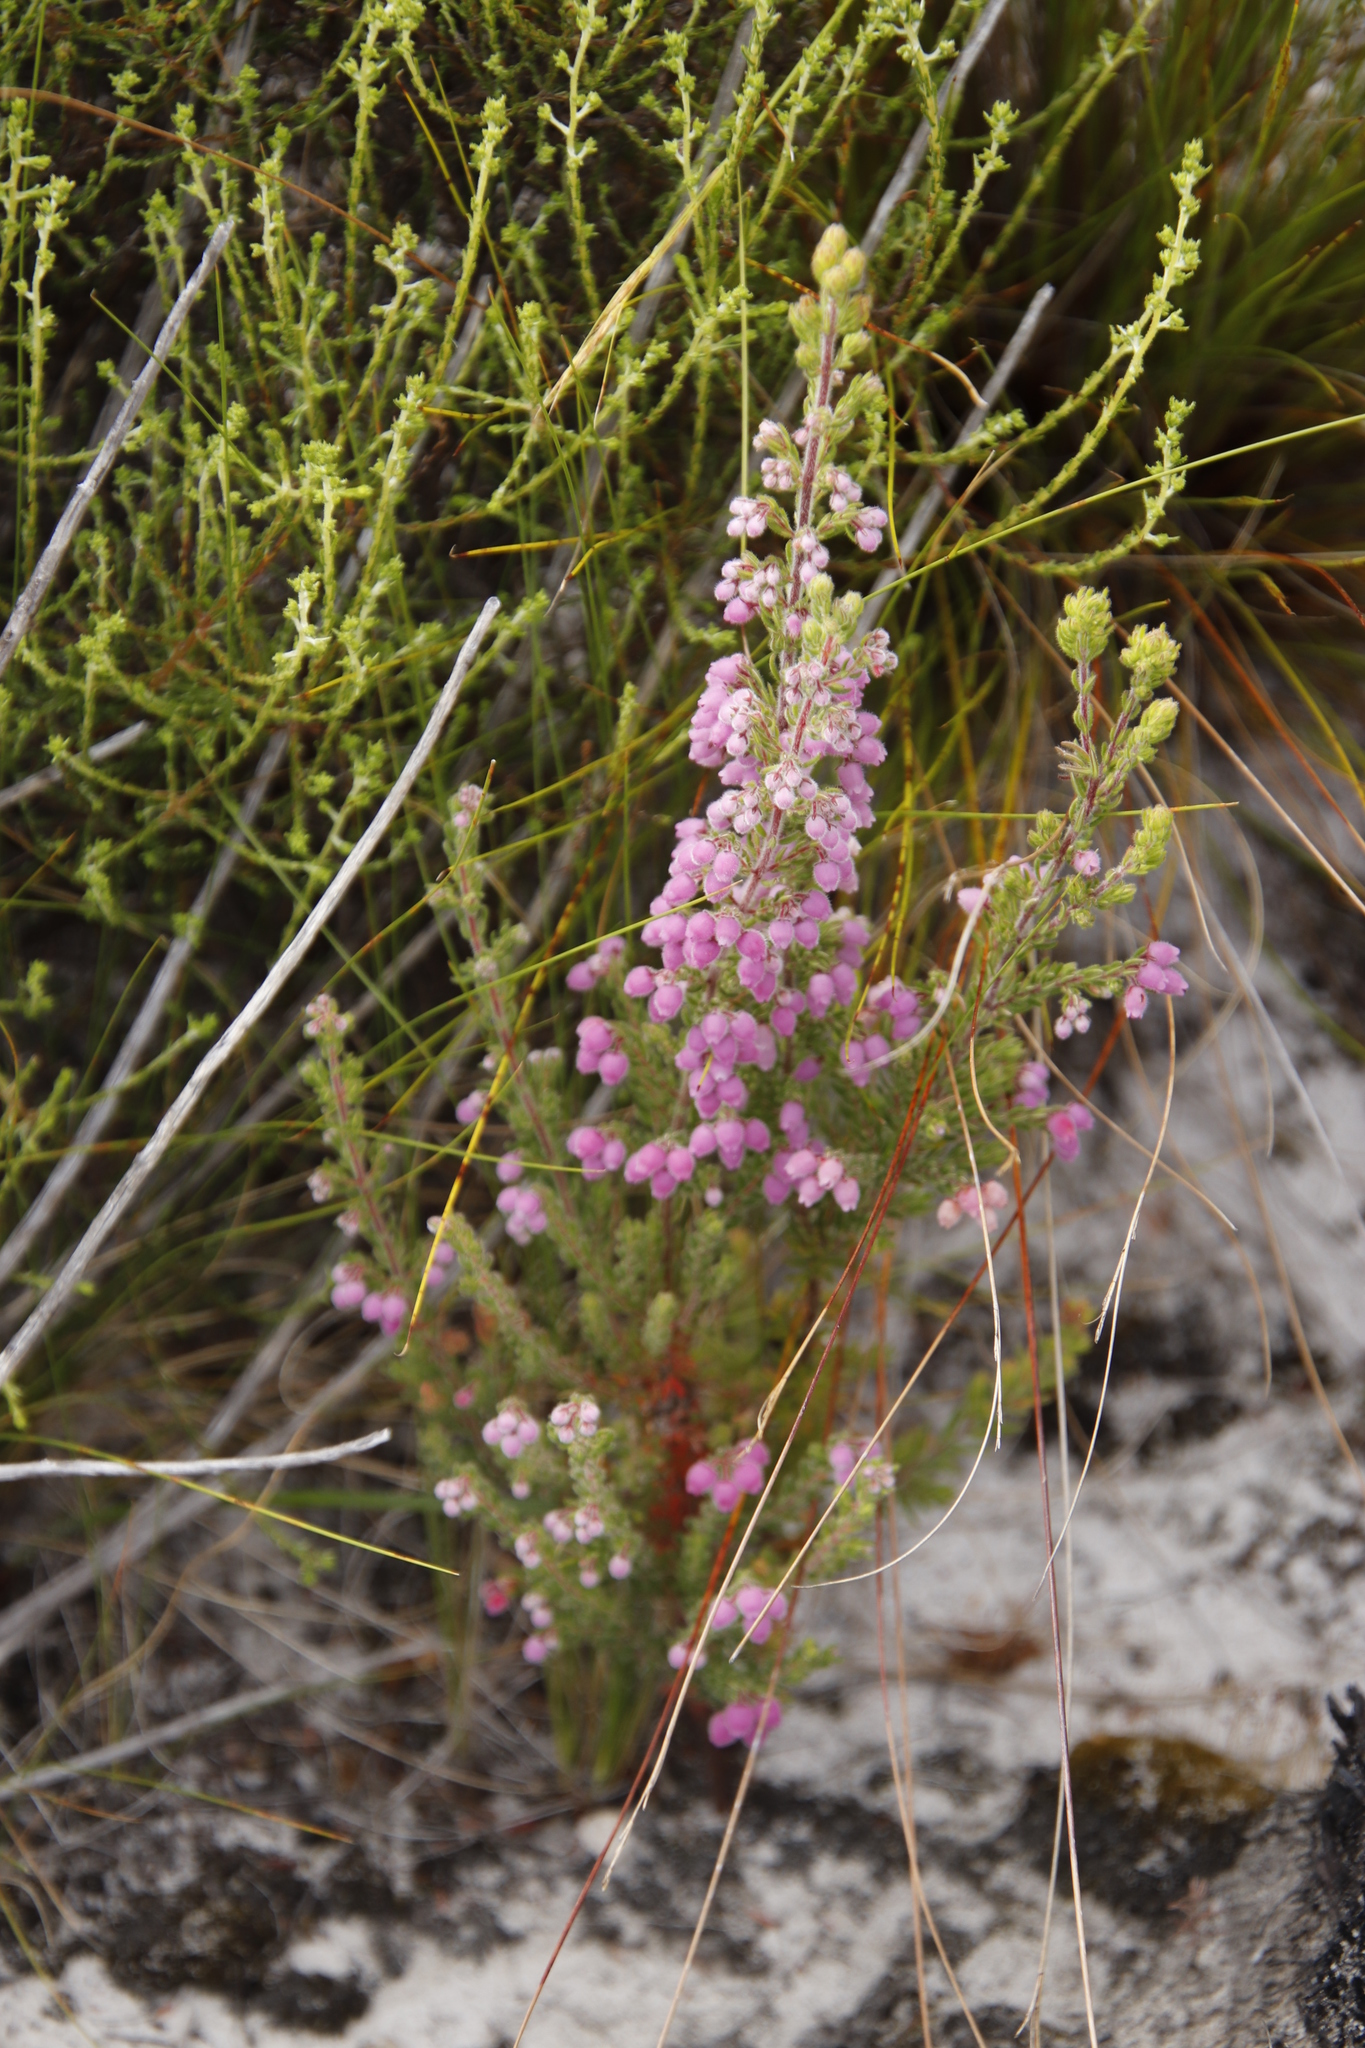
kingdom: Plantae
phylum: Tracheophyta
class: Magnoliopsida
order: Ericales
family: Ericaceae
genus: Erica
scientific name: Erica hirtiflora
